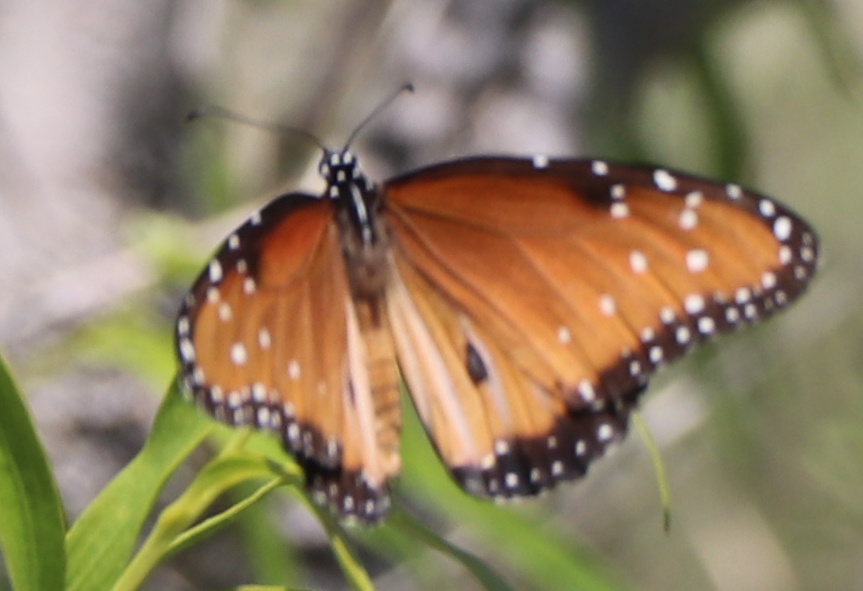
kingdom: Animalia
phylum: Arthropoda
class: Insecta
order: Lepidoptera
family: Nymphalidae
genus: Danaus
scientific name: Danaus gilippus
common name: Queen
